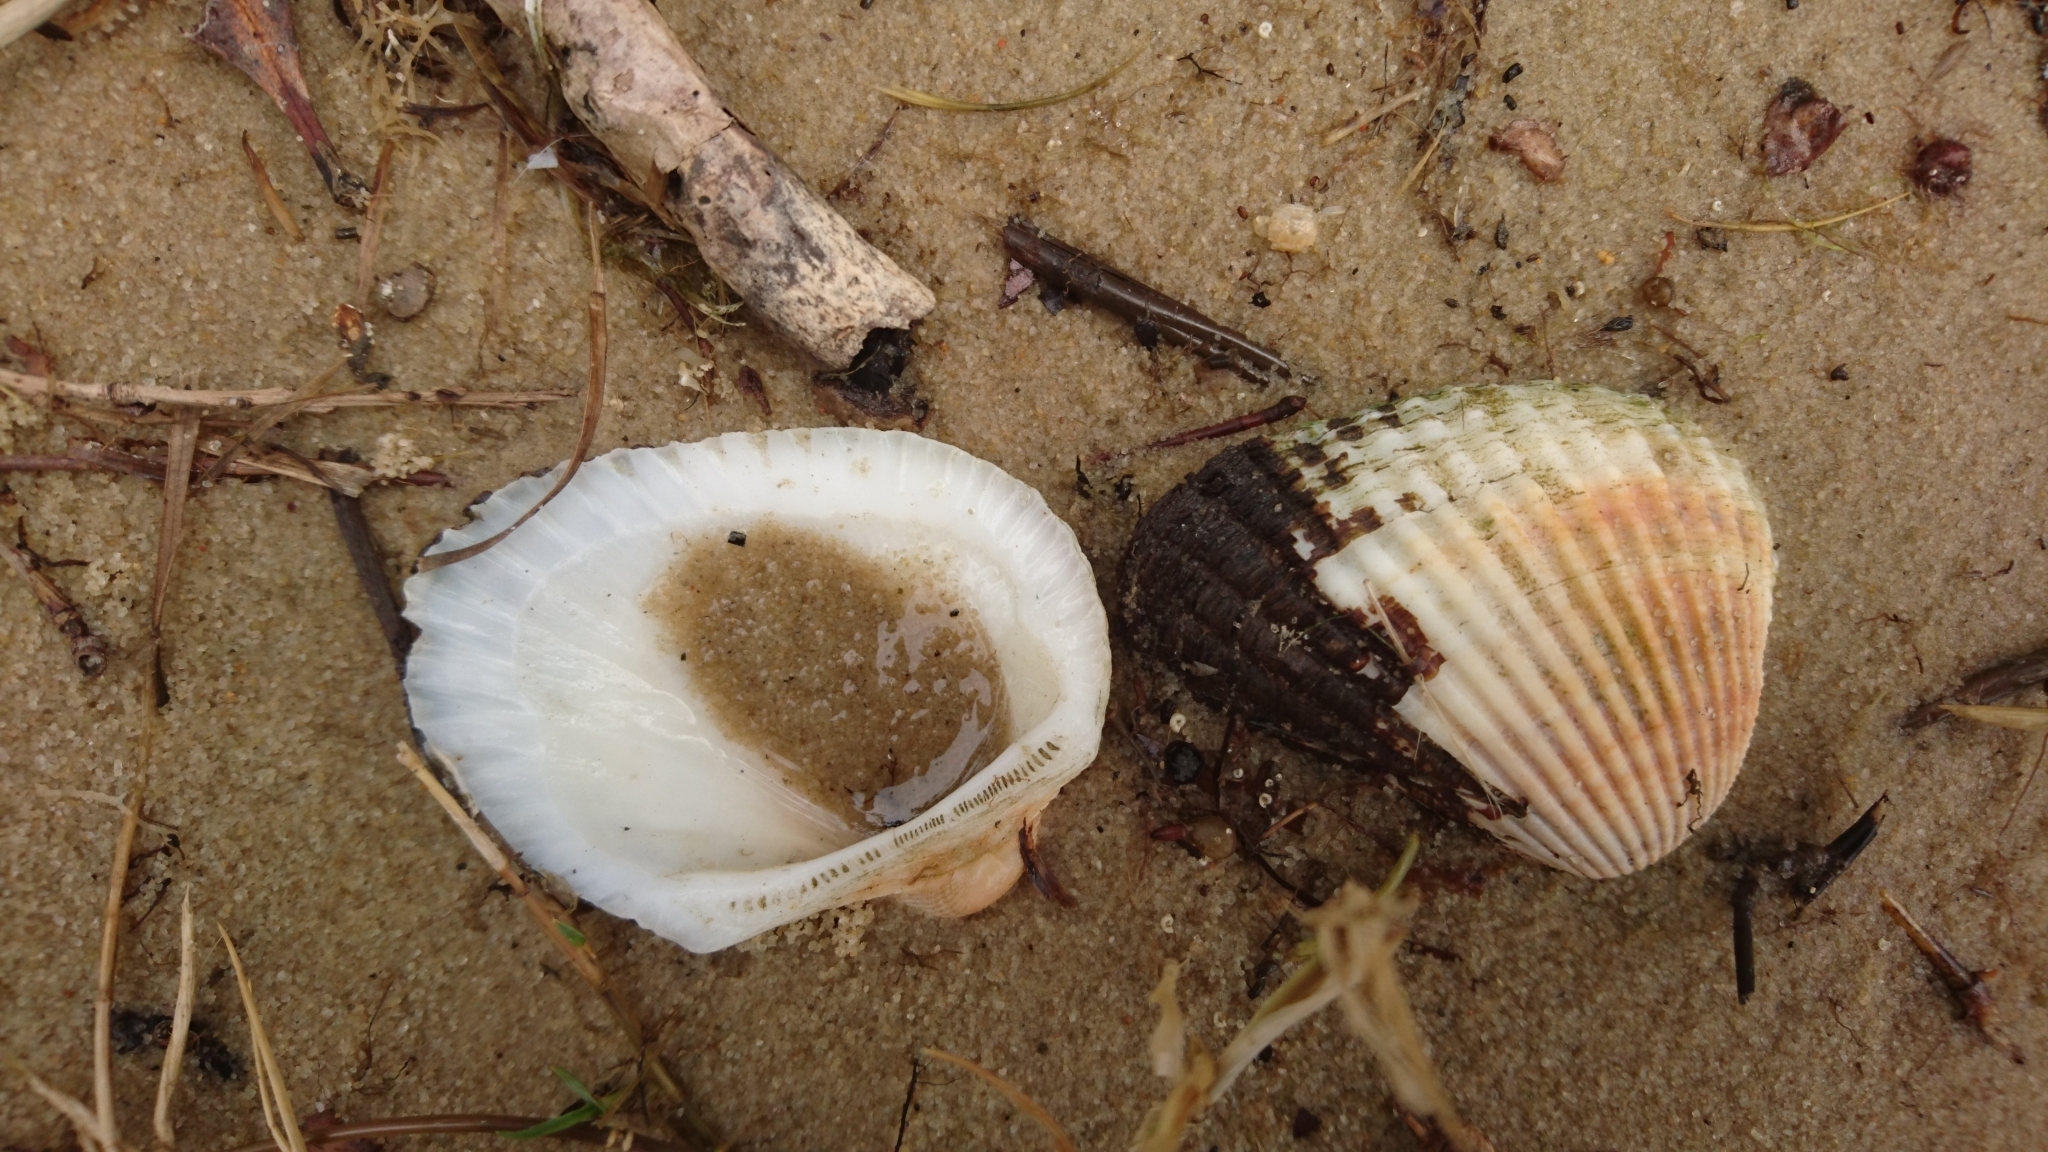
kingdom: Animalia
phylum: Mollusca
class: Bivalvia
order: Arcida
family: Arcidae
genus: Anadara
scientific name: Anadara trapezia
